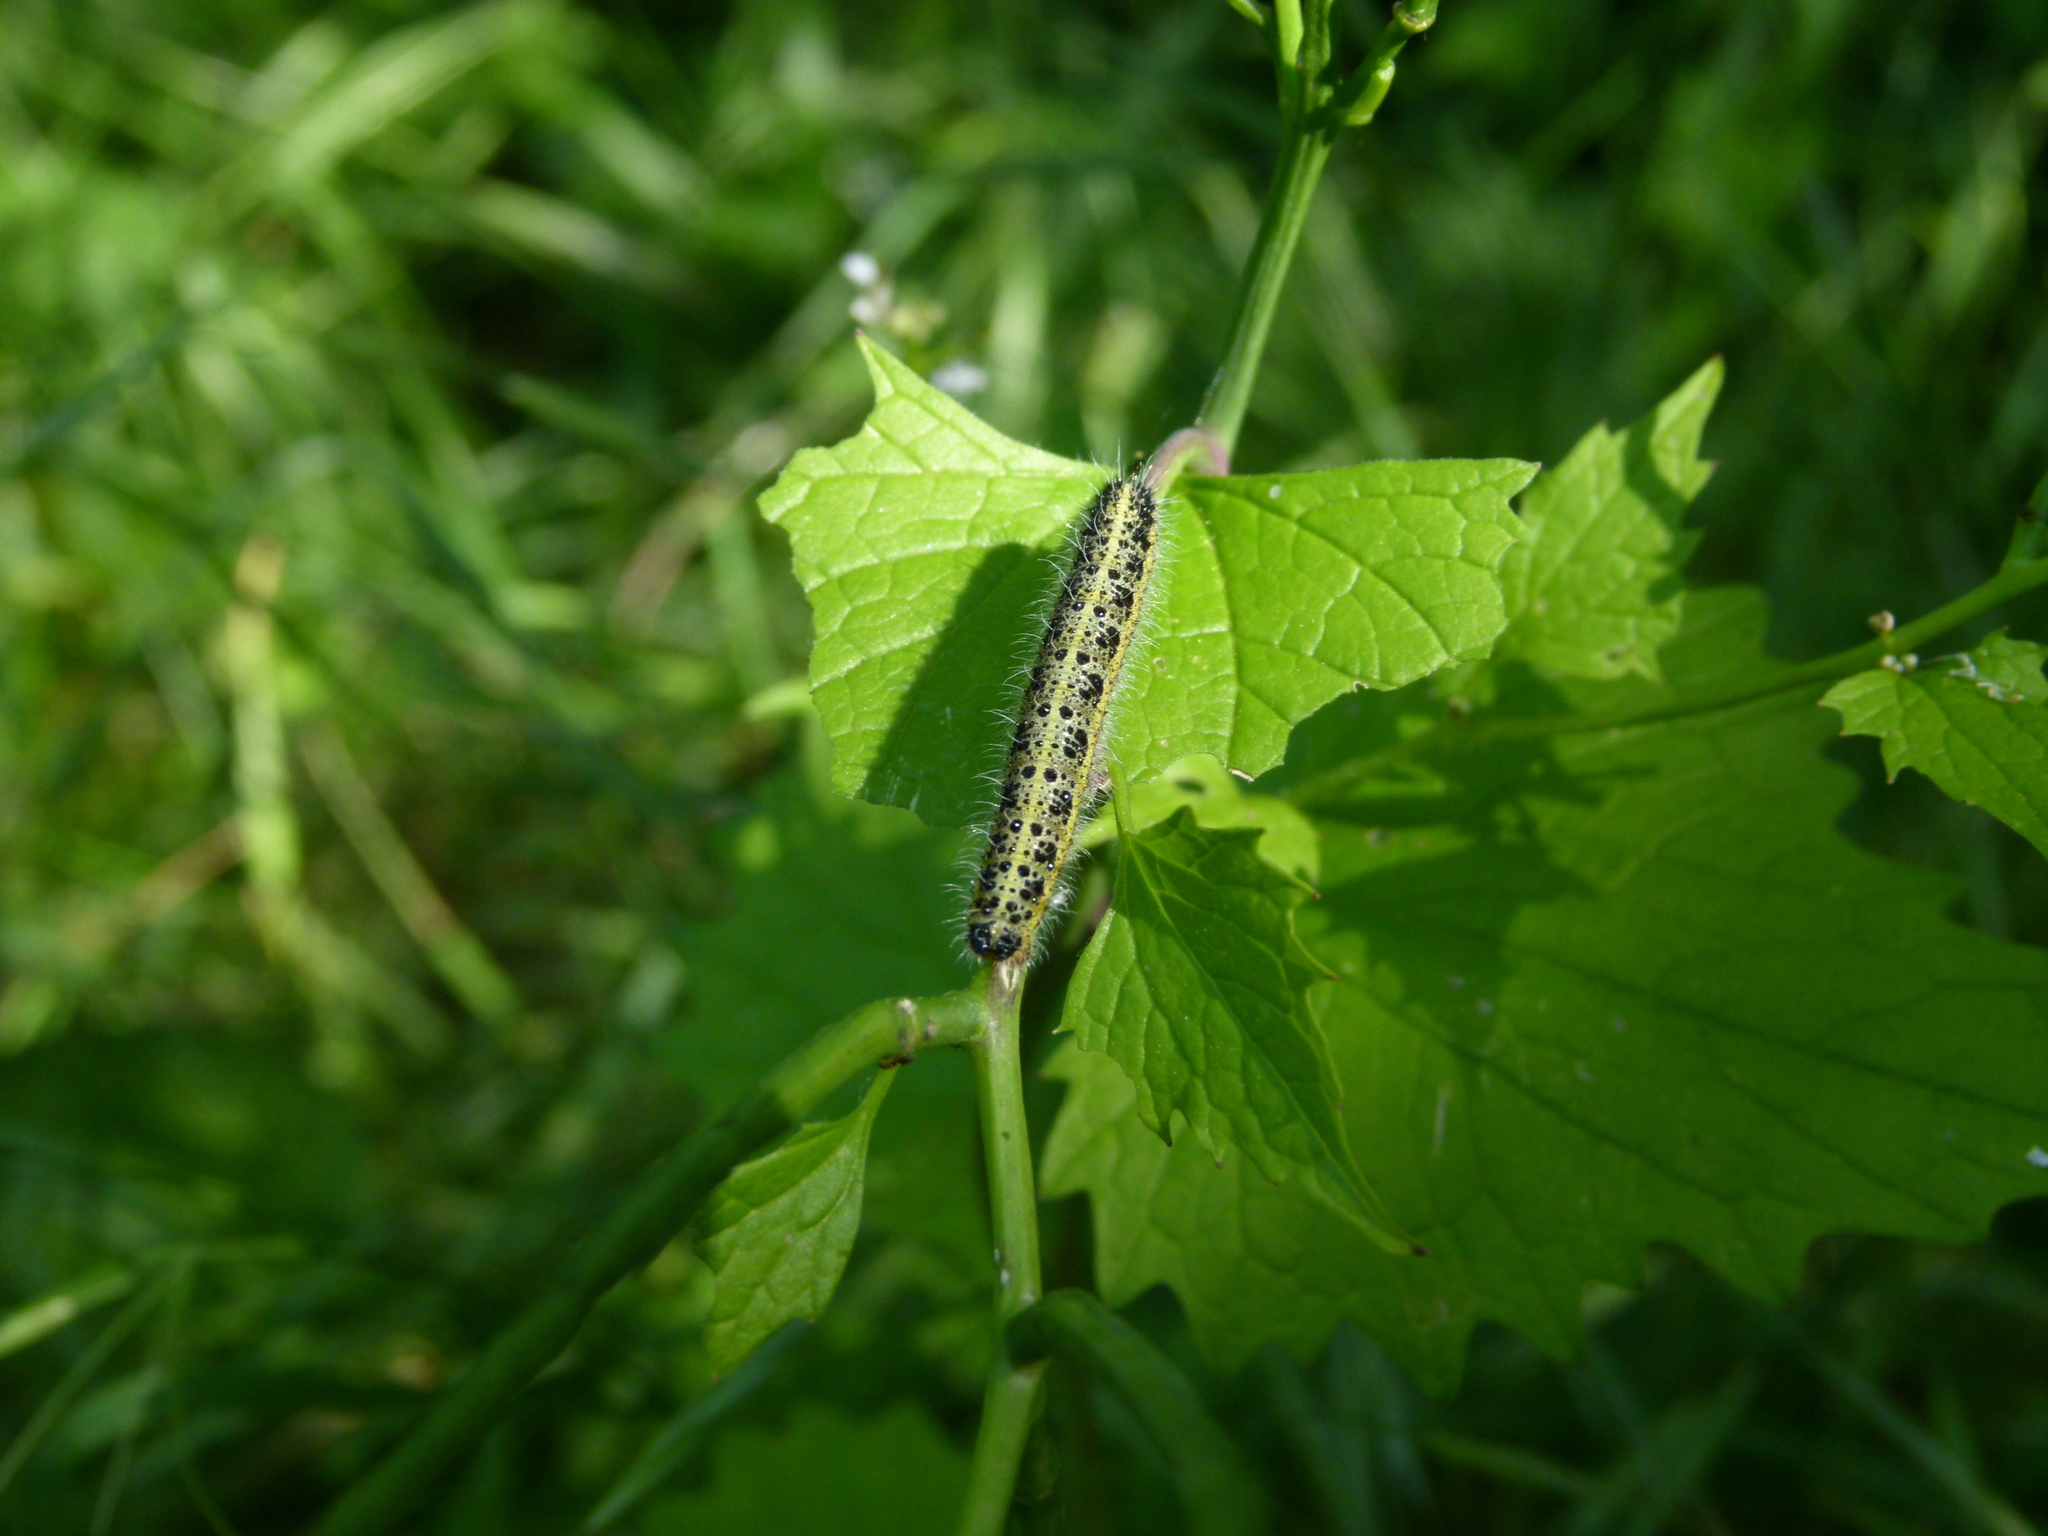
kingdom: Animalia
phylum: Arthropoda
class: Insecta
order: Lepidoptera
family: Pieridae
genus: Pieris
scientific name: Pieris brassicae
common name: Large white
